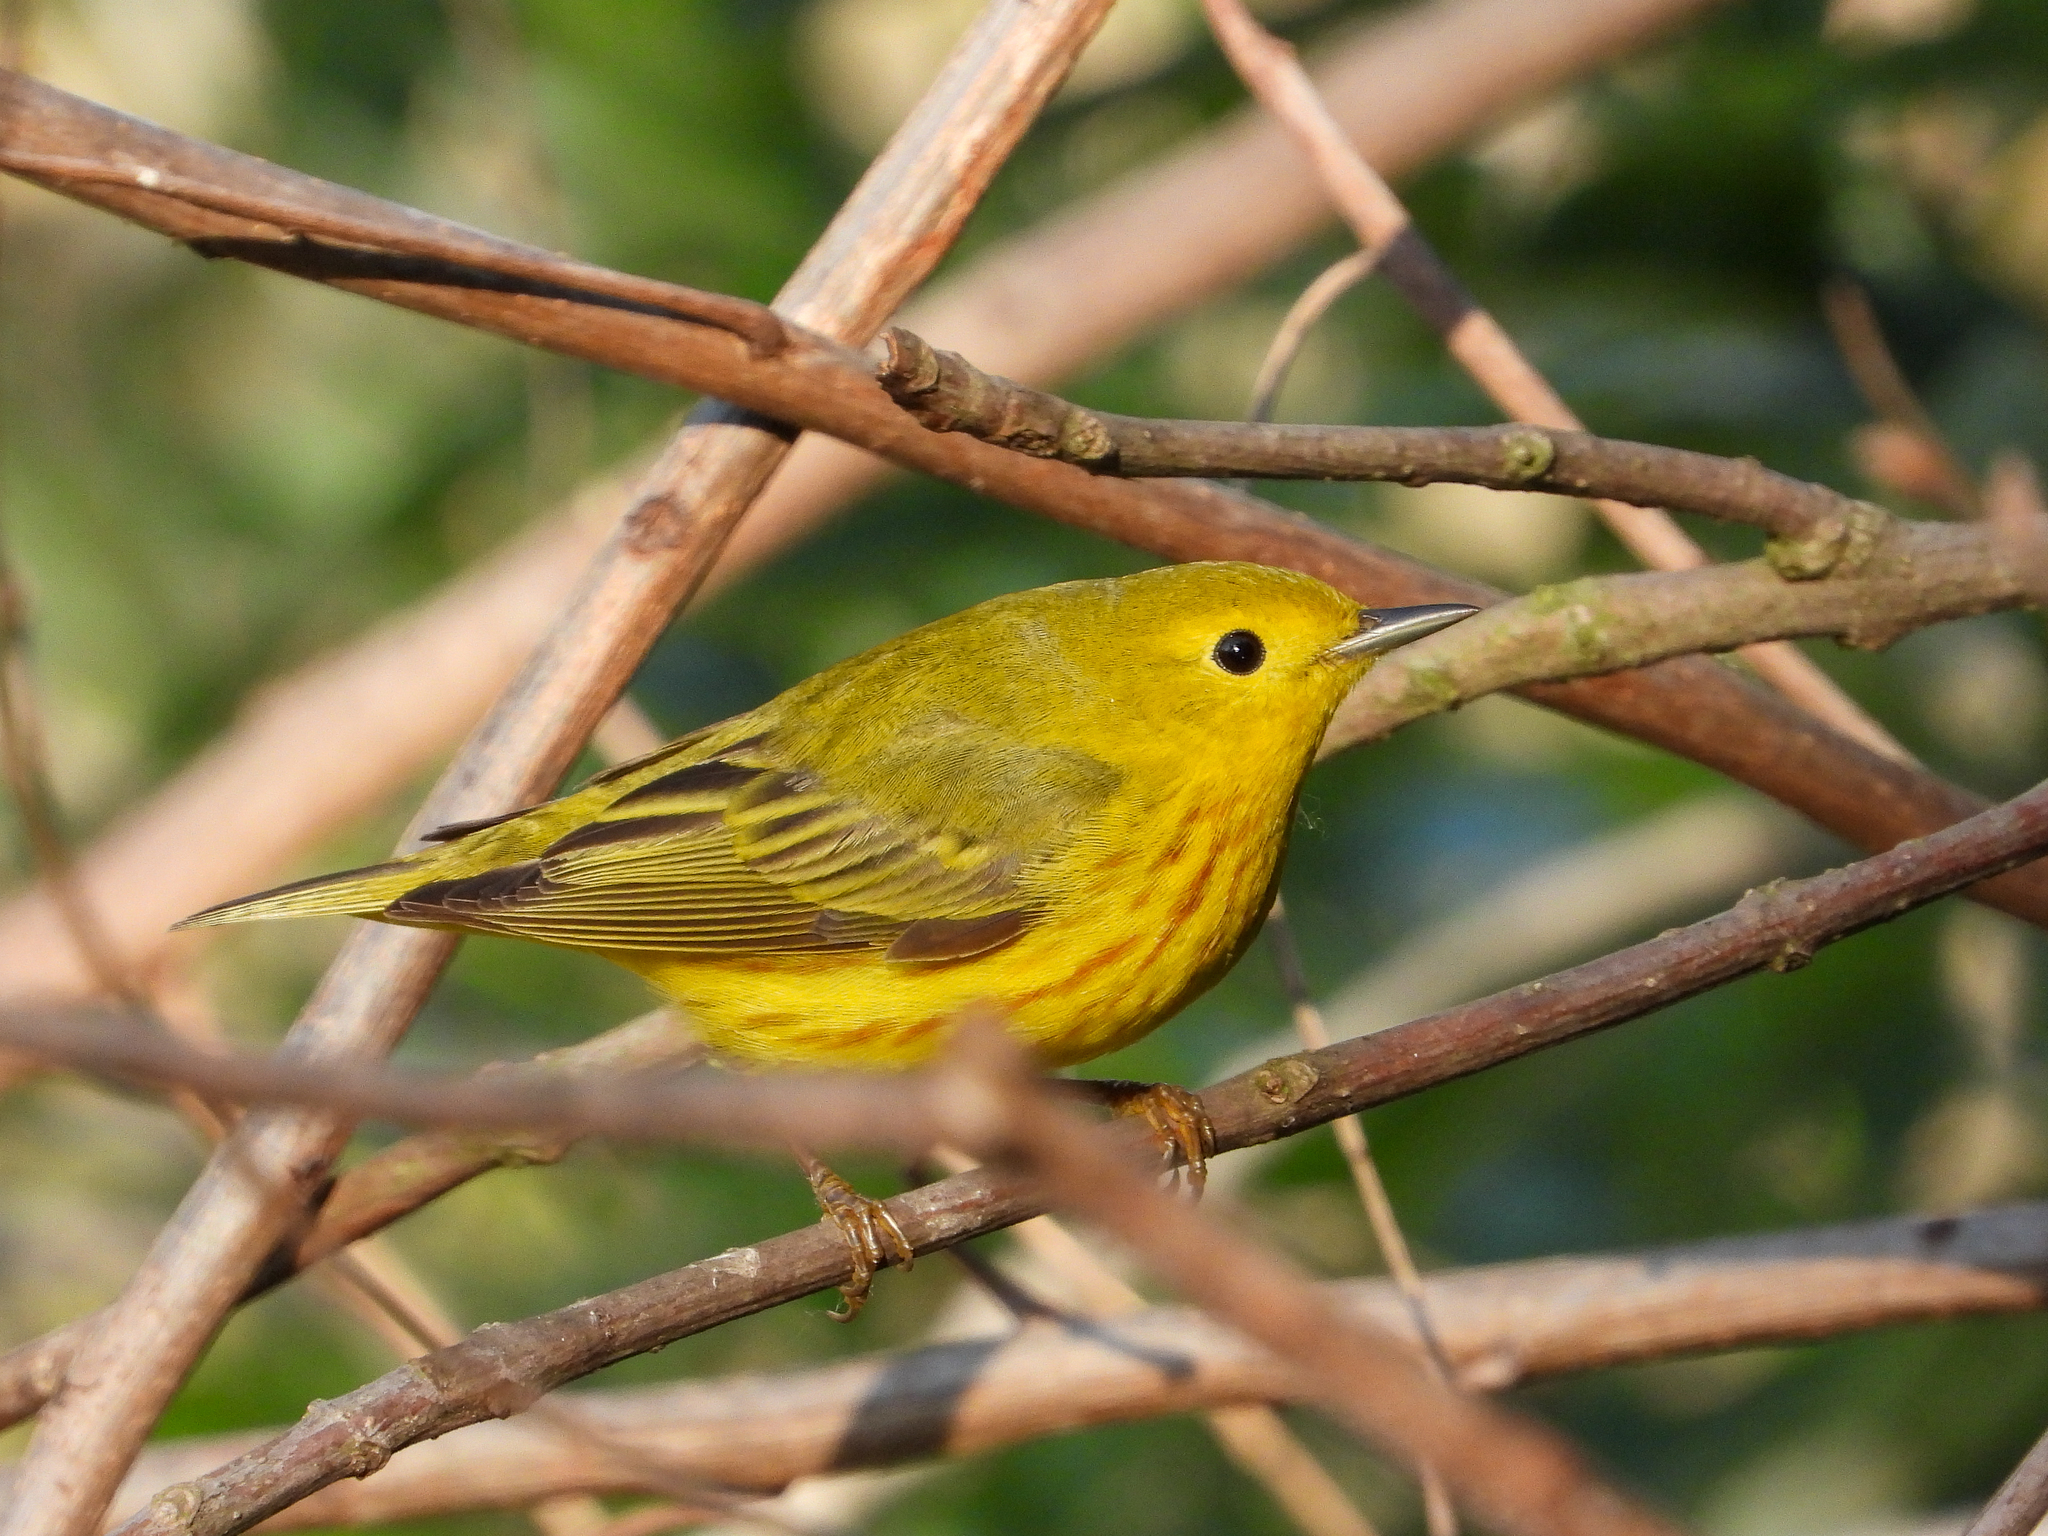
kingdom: Animalia
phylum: Chordata
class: Aves
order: Passeriformes
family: Parulidae
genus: Setophaga
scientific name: Setophaga petechia
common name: Yellow warbler
